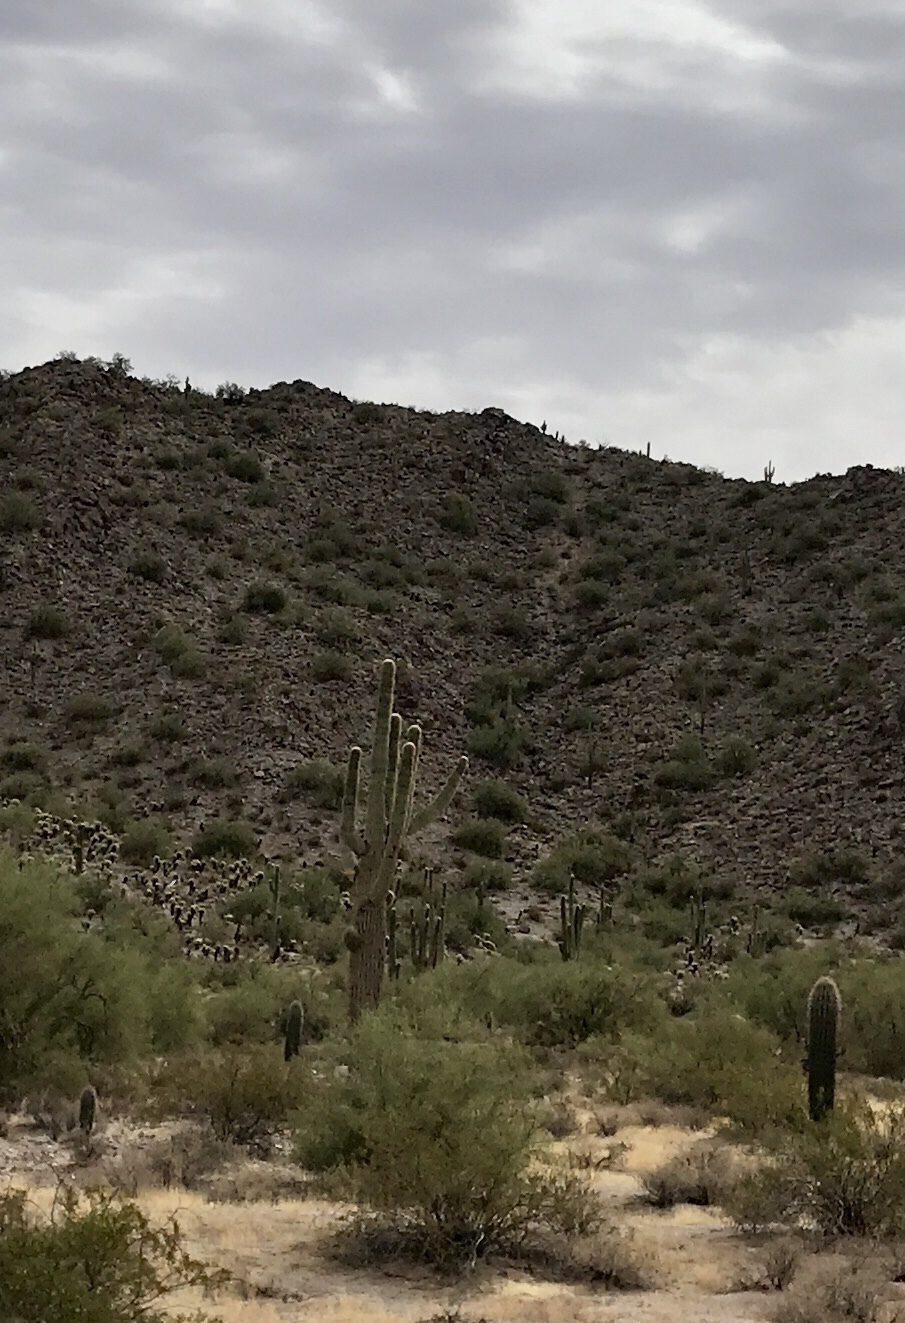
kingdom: Plantae
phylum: Tracheophyta
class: Magnoliopsida
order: Caryophyllales
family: Cactaceae
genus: Carnegiea
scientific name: Carnegiea gigantea
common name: Saguaro
